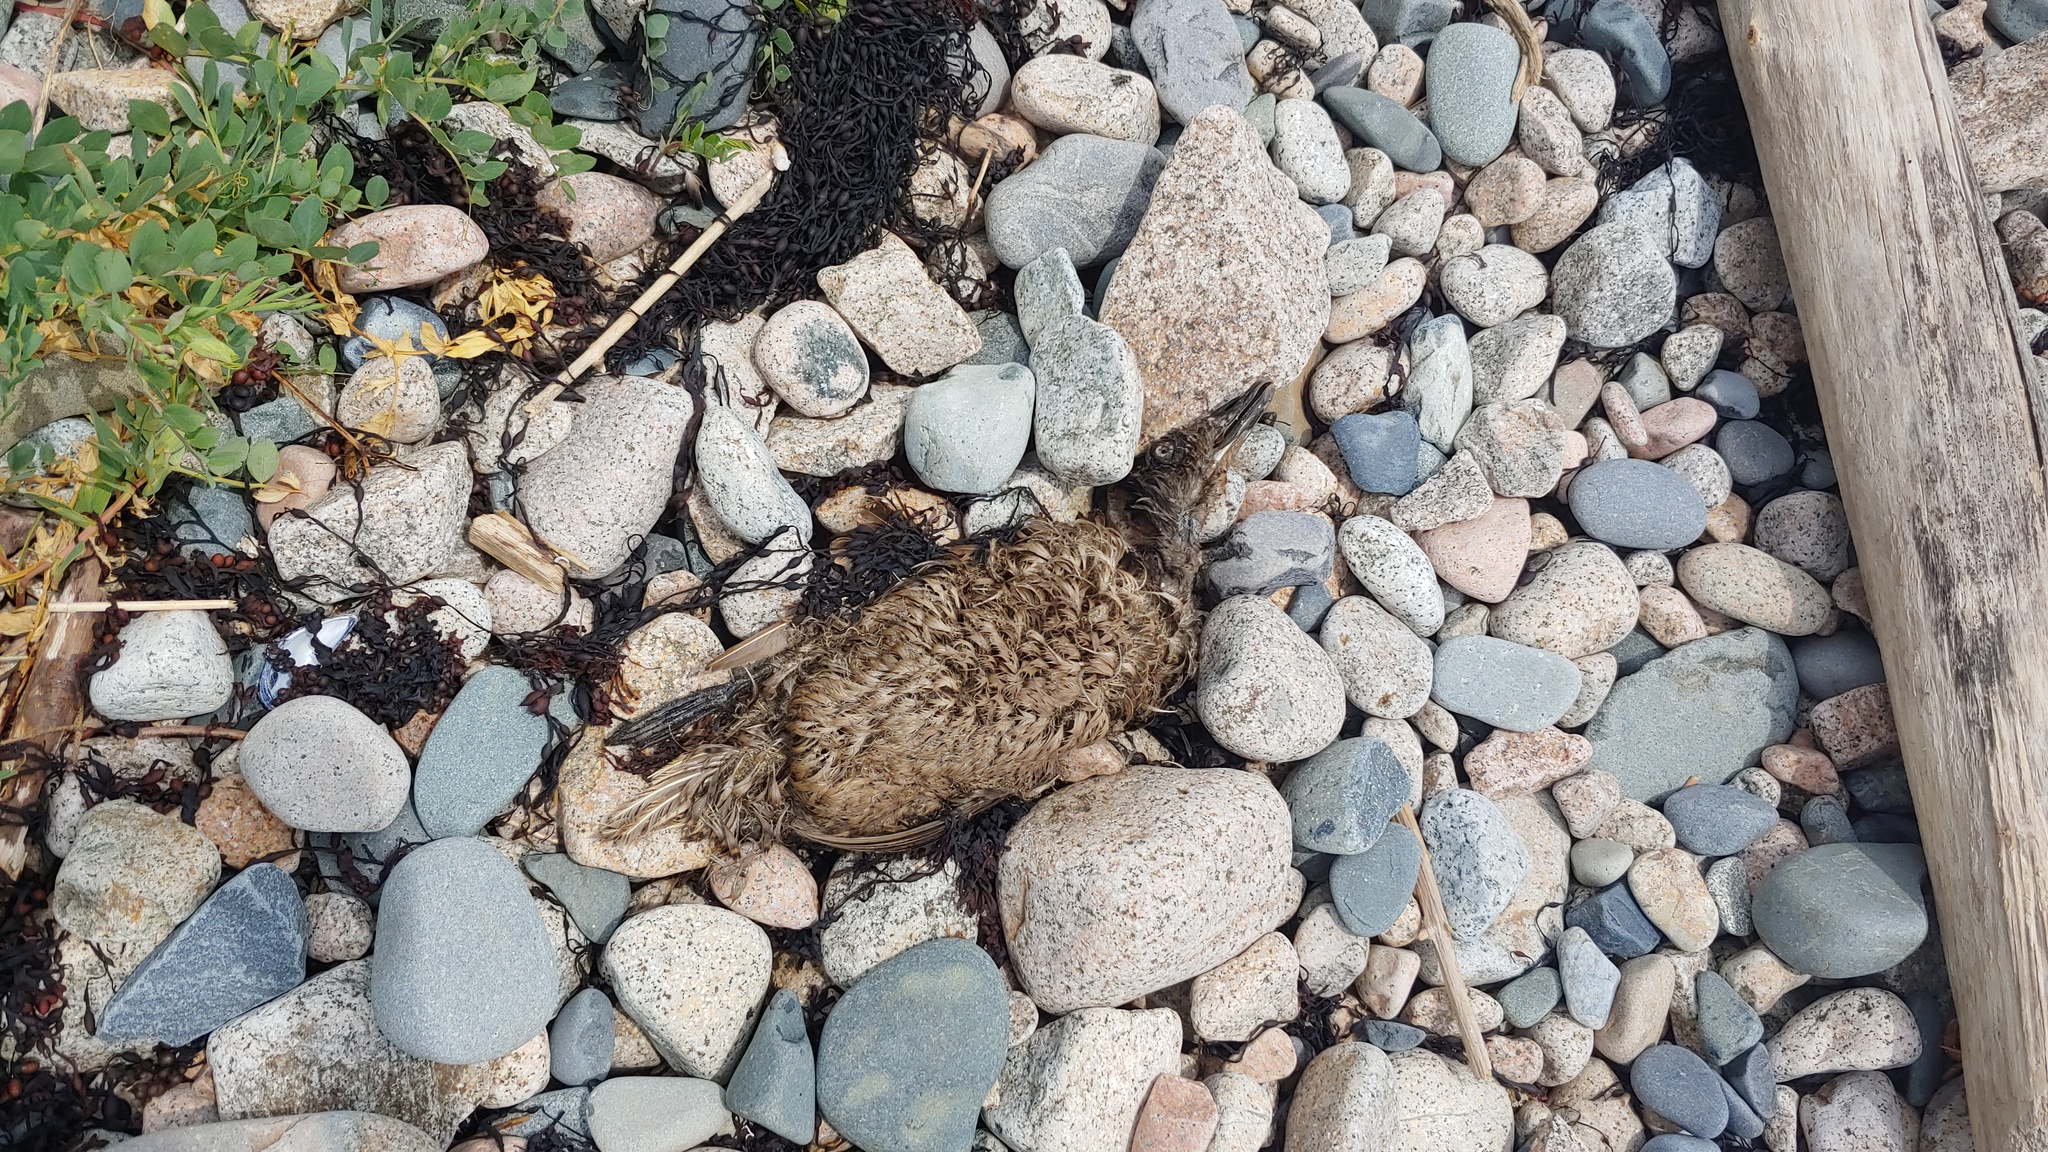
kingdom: Animalia
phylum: Chordata
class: Aves
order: Anseriformes
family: Anatidae
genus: Somateria
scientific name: Somateria mollissima
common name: Common eider
